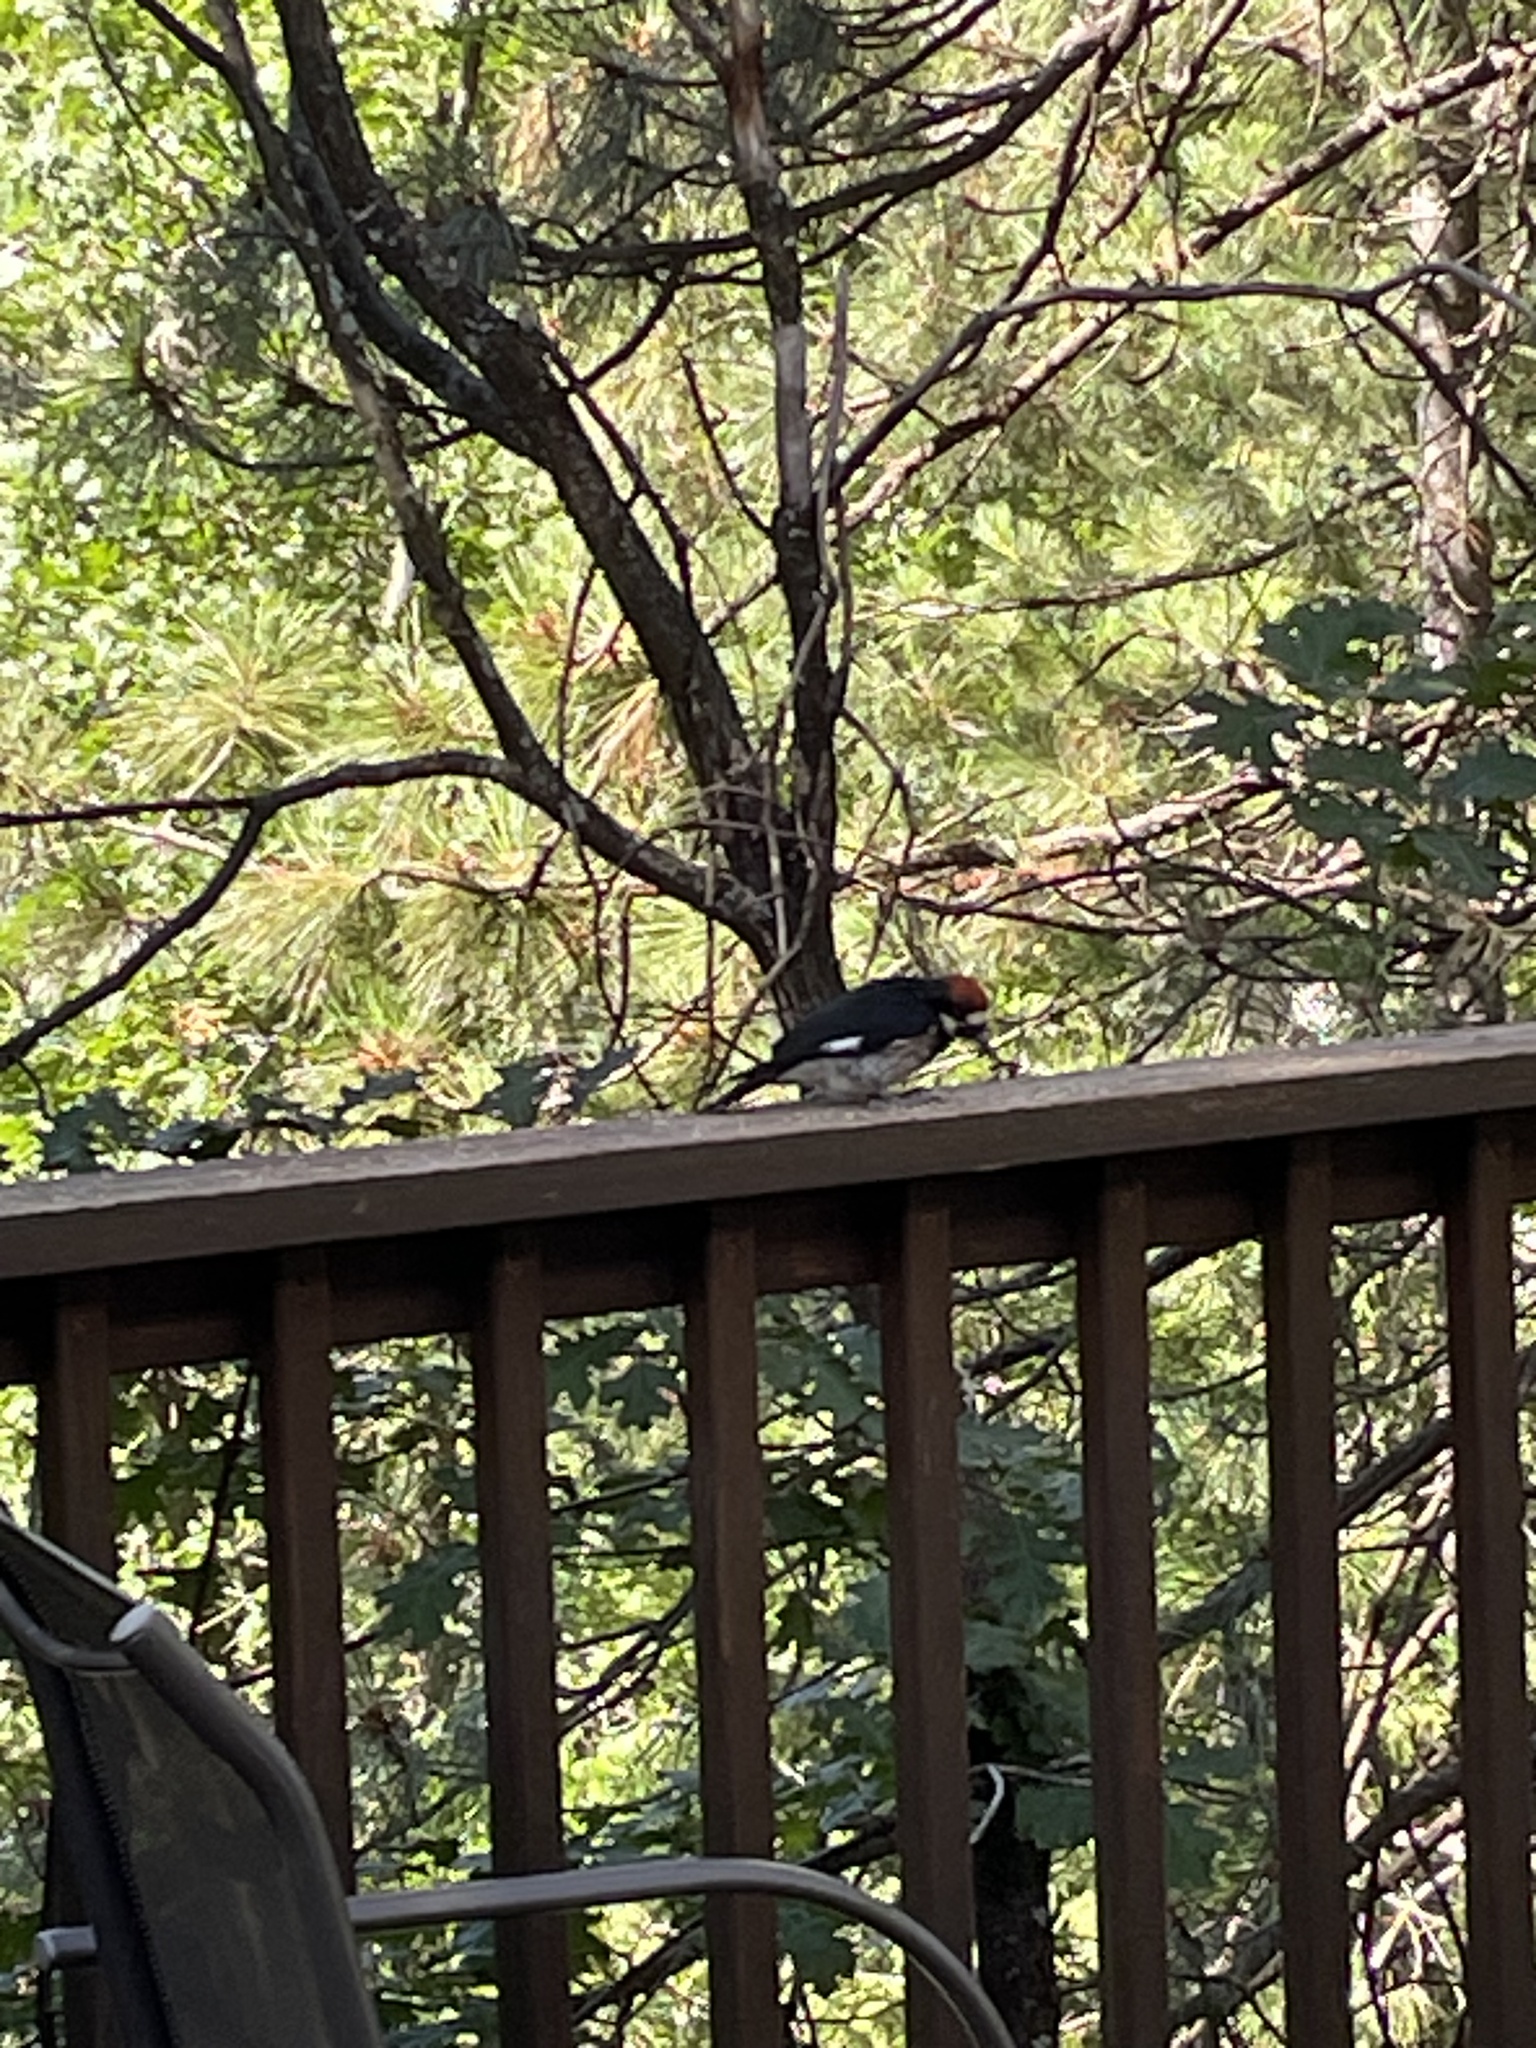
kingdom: Animalia
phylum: Chordata
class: Aves
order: Piciformes
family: Picidae
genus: Melanerpes
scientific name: Melanerpes formicivorus
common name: Acorn woodpecker
